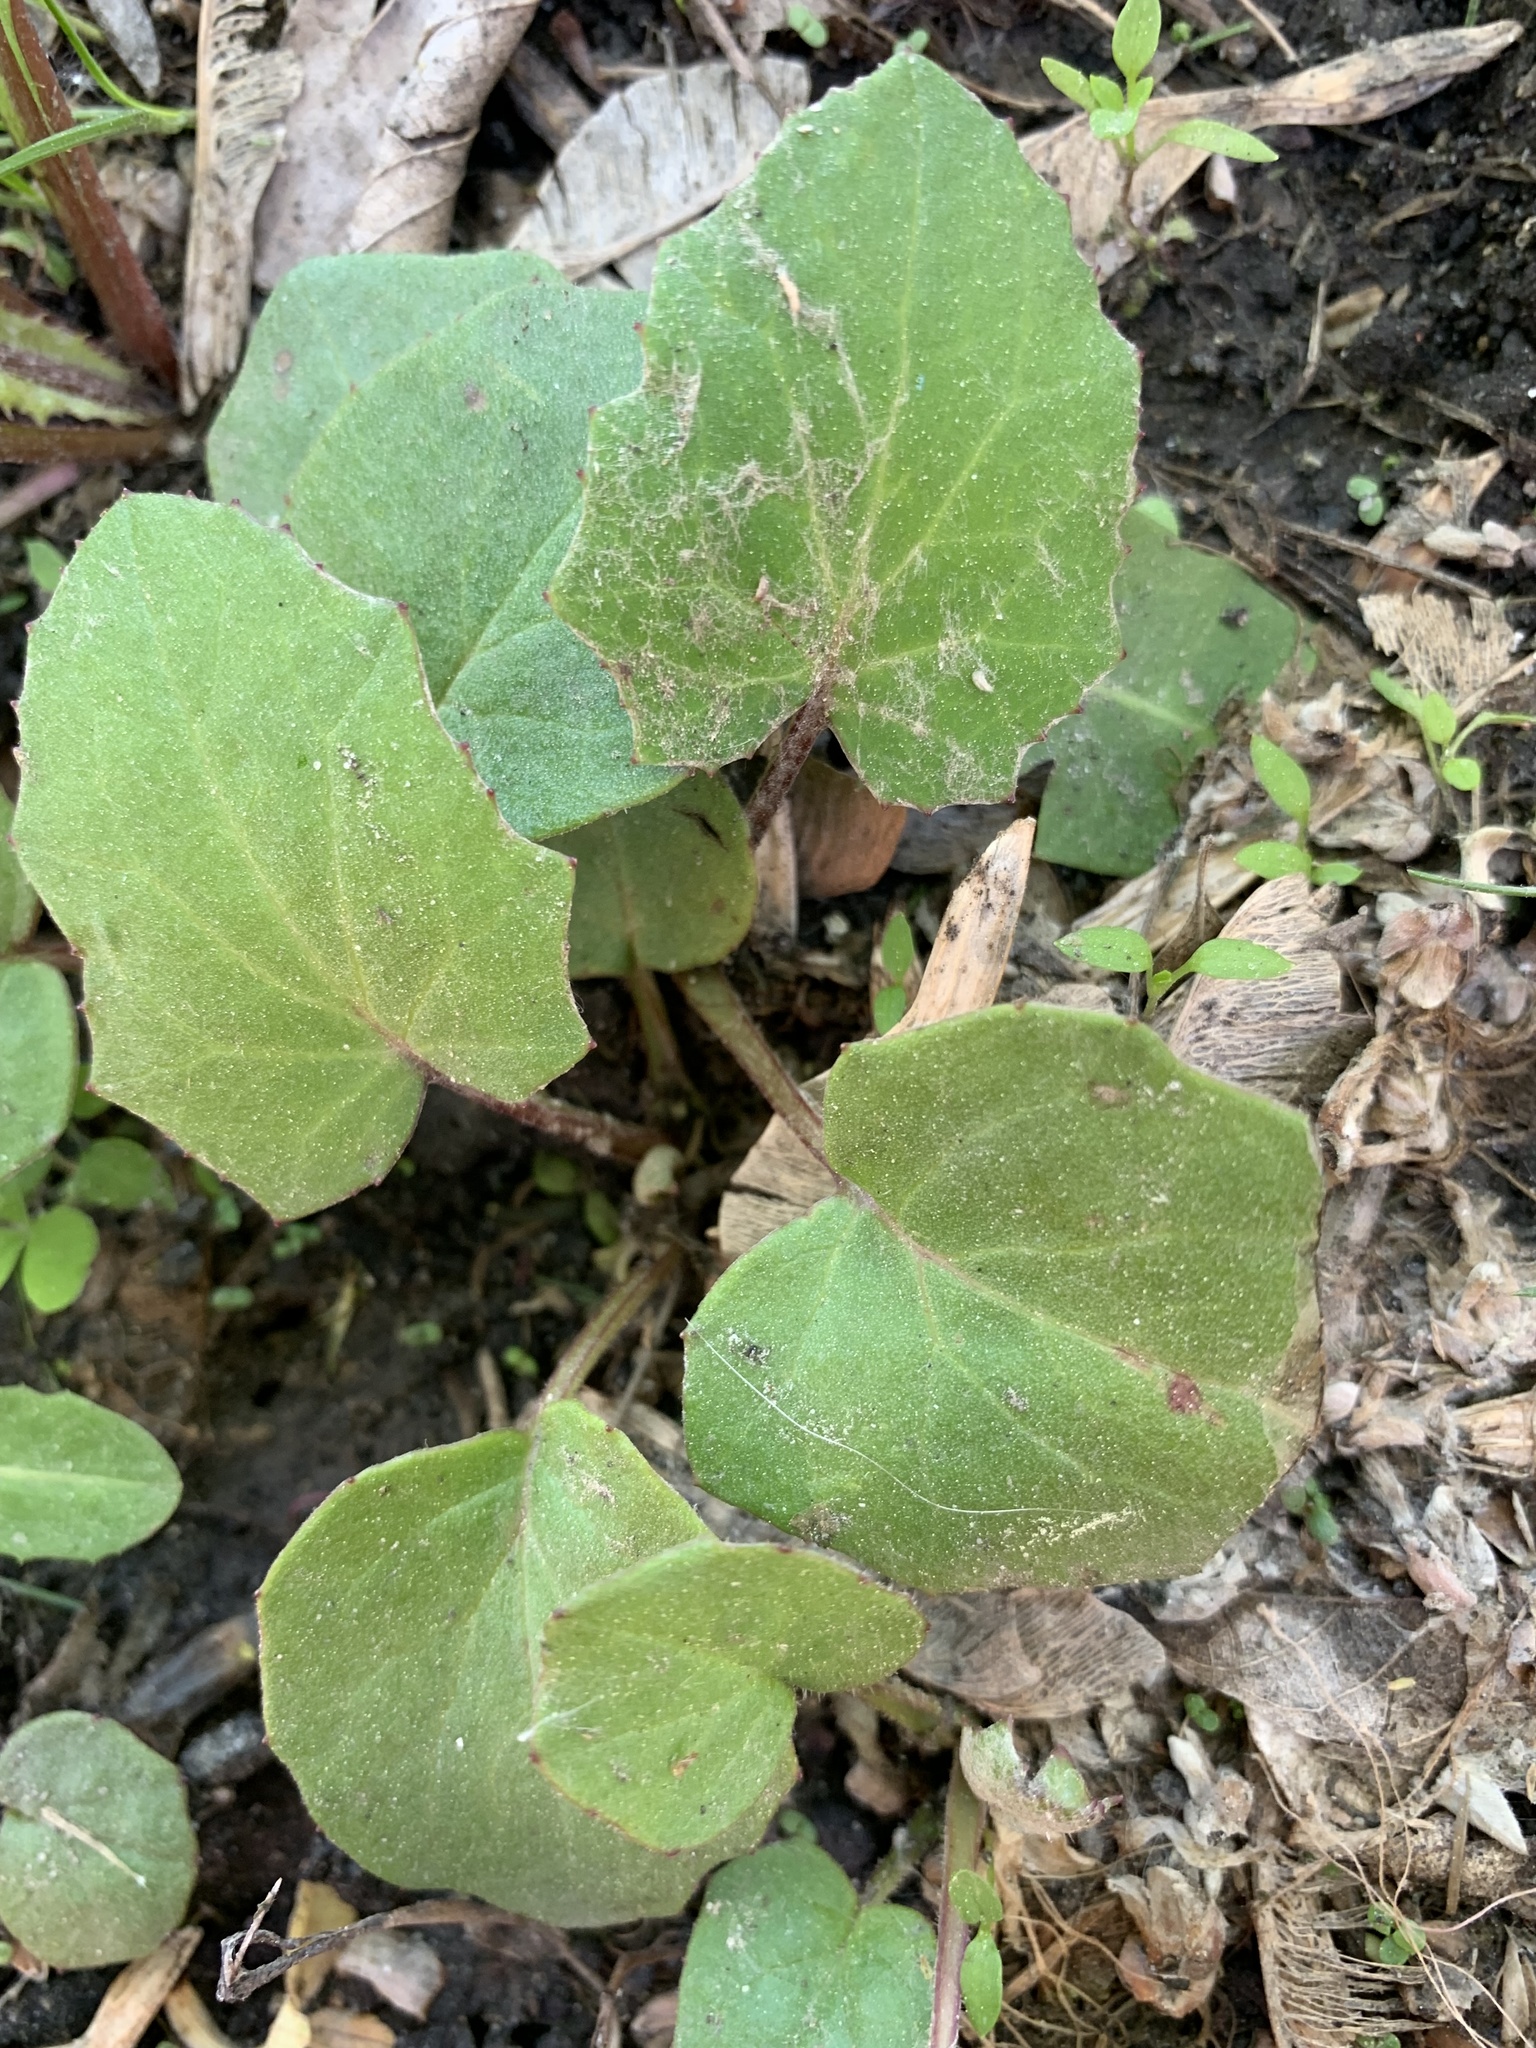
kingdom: Plantae
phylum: Tracheophyta
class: Magnoliopsida
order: Asterales
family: Asteraceae
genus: Tussilago
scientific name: Tussilago farfara
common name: Coltsfoot
